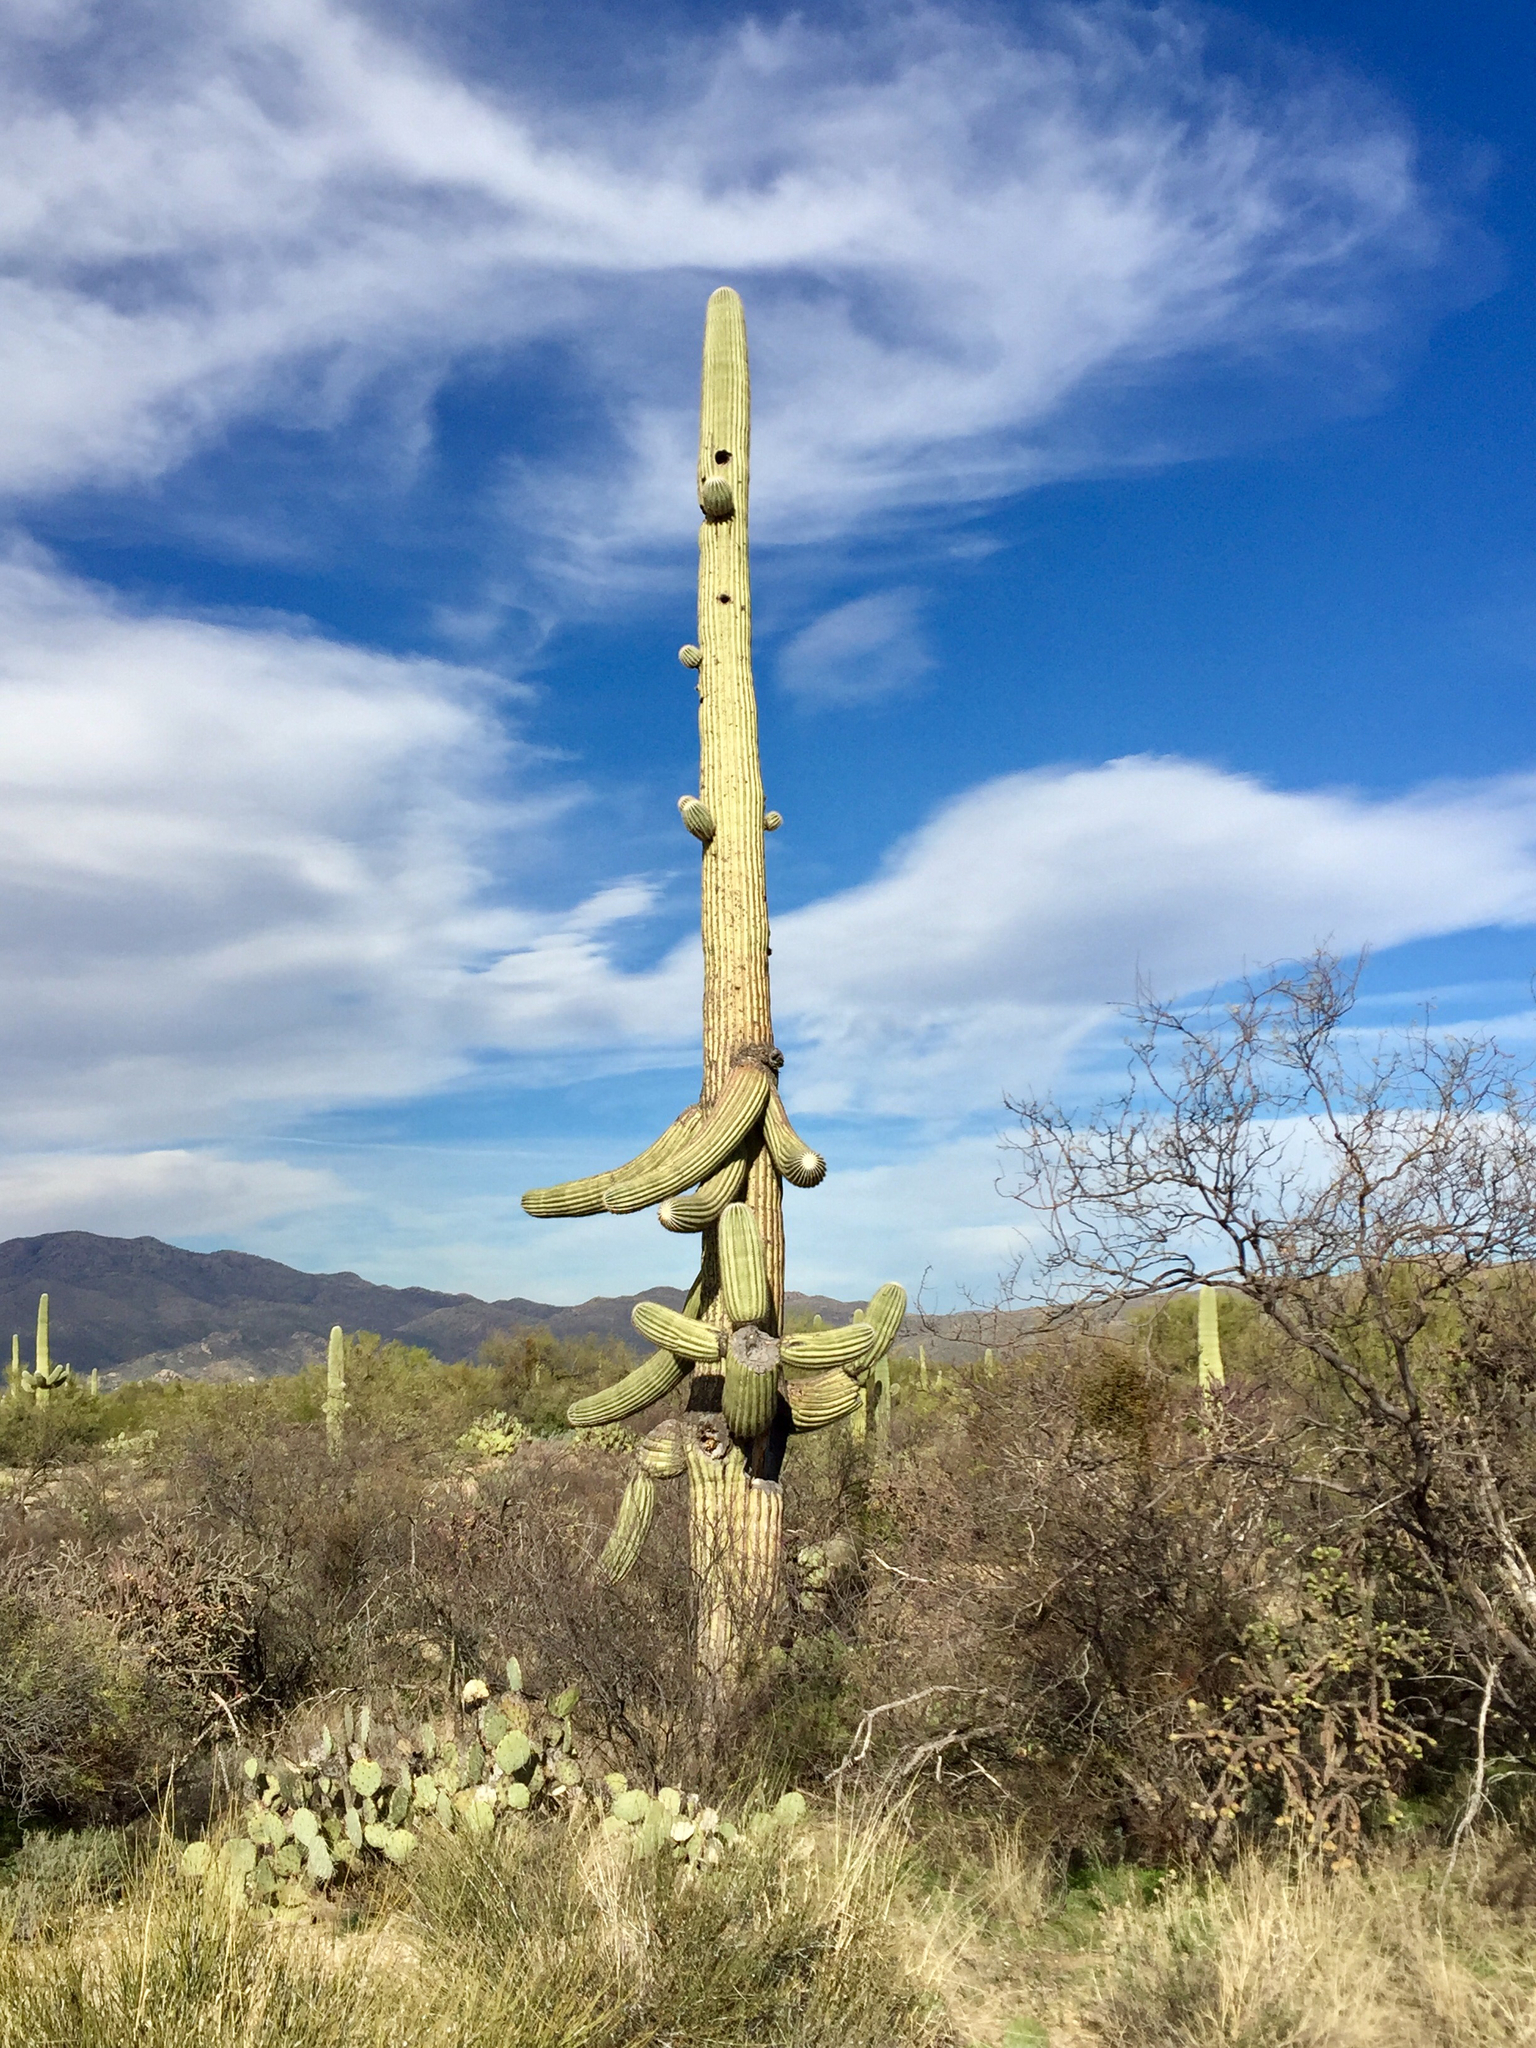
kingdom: Plantae
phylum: Tracheophyta
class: Magnoliopsida
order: Caryophyllales
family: Cactaceae
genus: Carnegiea
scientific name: Carnegiea gigantea
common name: Saguaro
